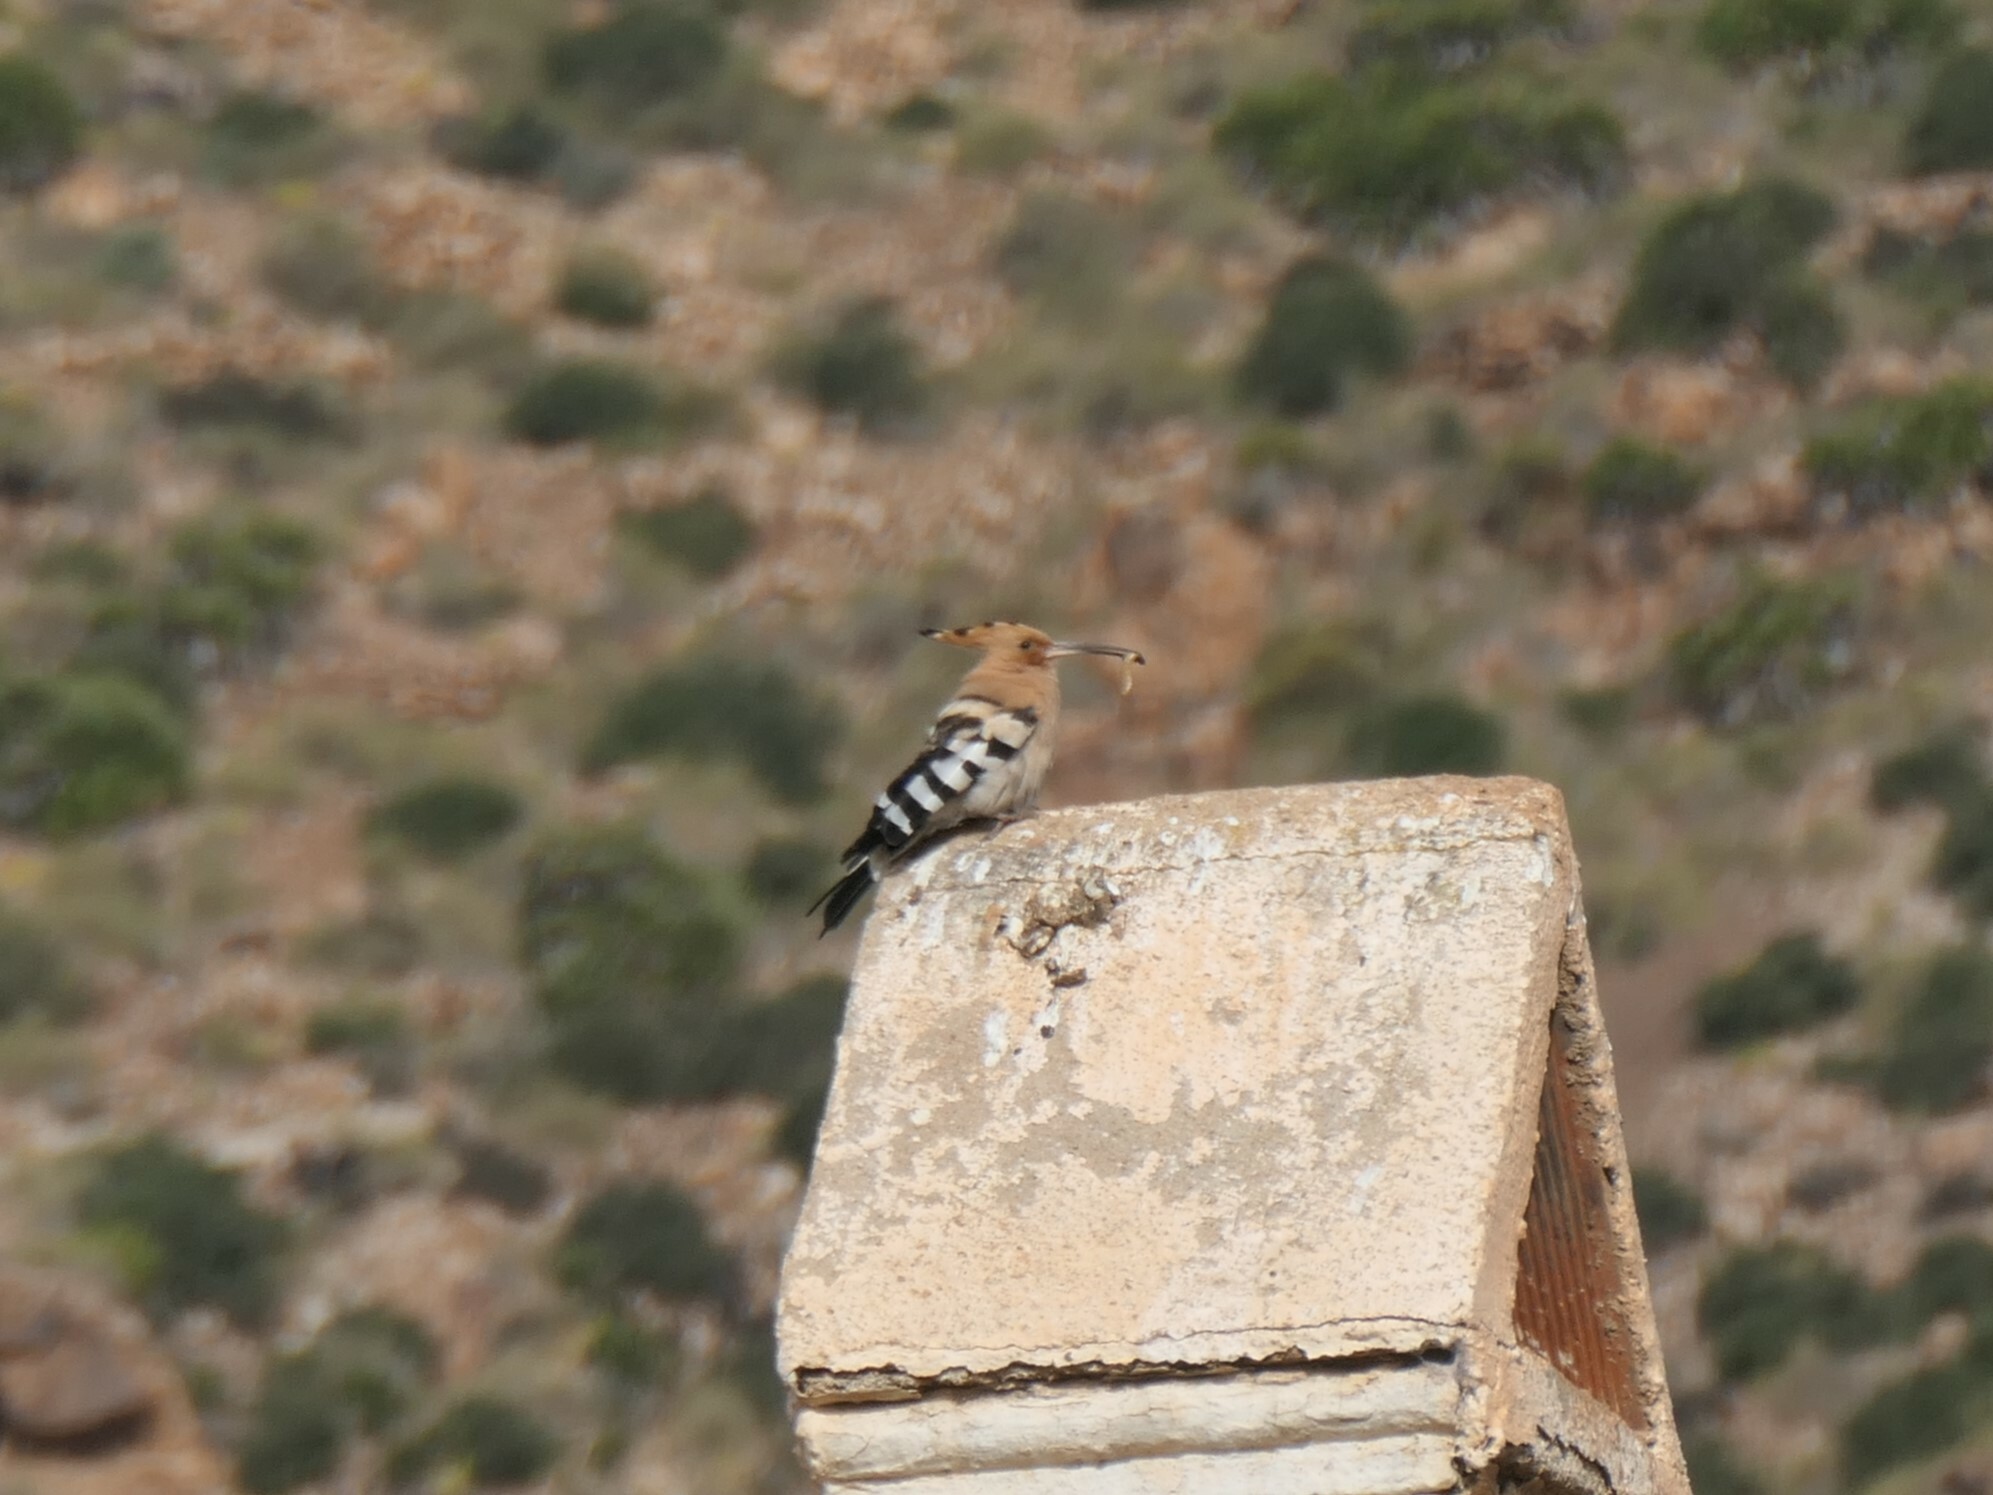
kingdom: Animalia
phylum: Chordata
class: Aves
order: Bucerotiformes
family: Upupidae
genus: Upupa
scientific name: Upupa epops
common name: Eurasian hoopoe
